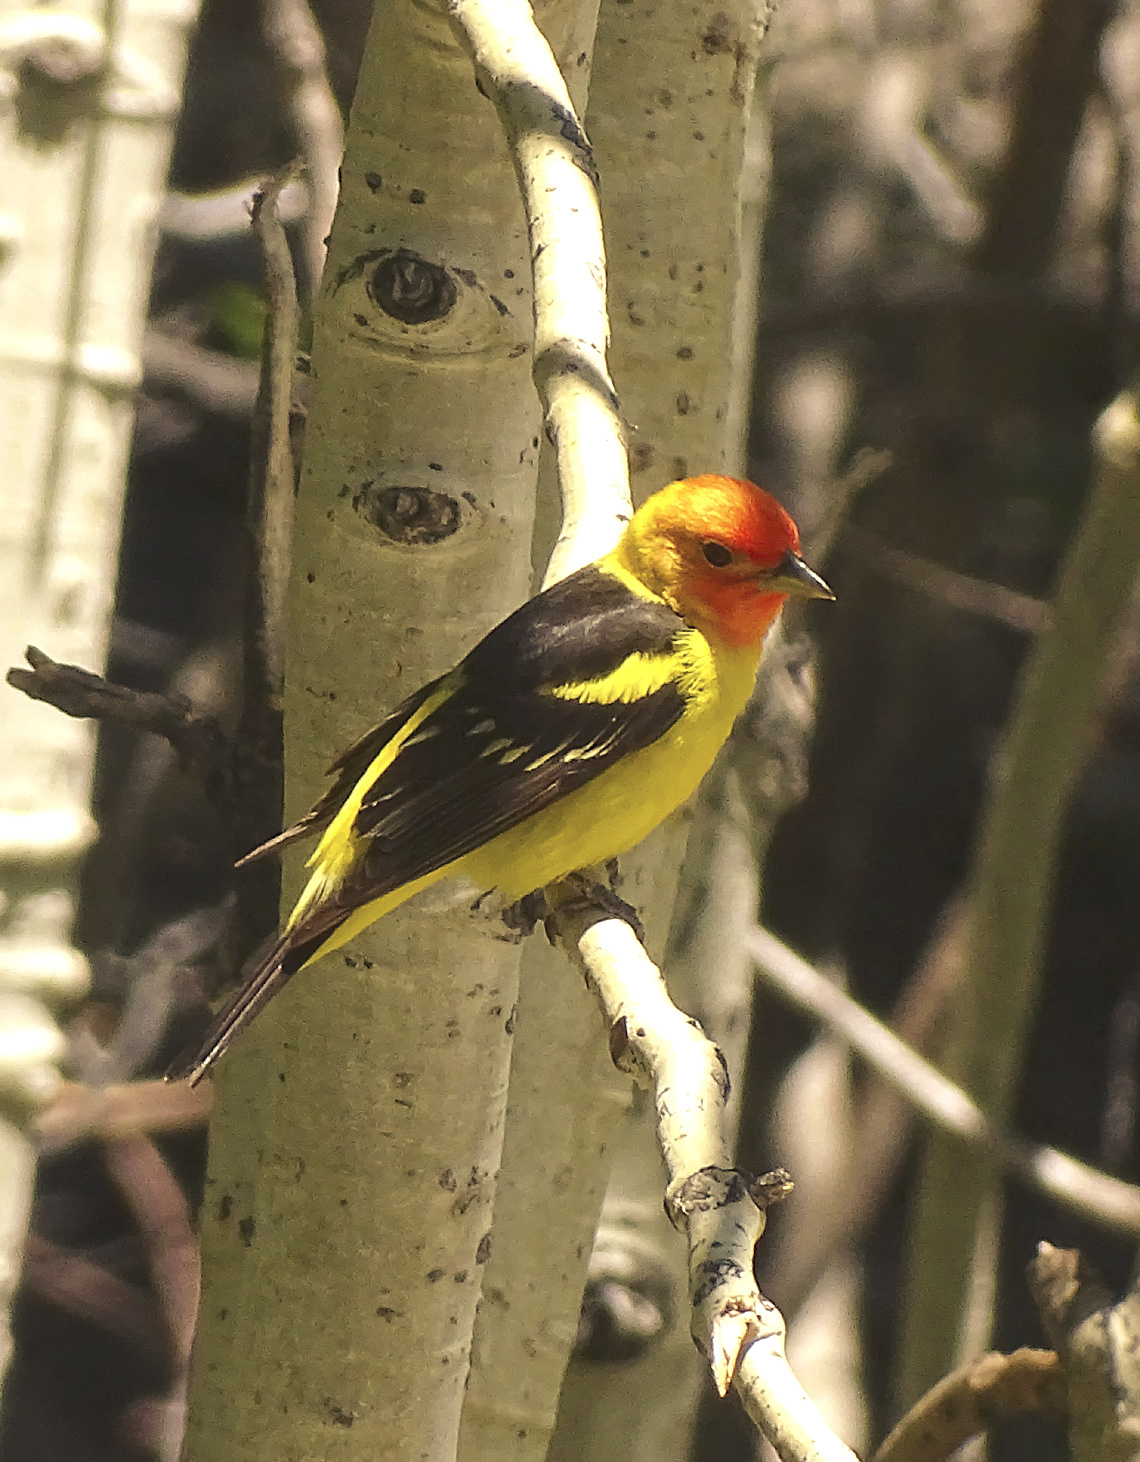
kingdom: Animalia
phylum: Chordata
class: Aves
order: Passeriformes
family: Cardinalidae
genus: Piranga
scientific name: Piranga ludoviciana
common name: Western tanager
